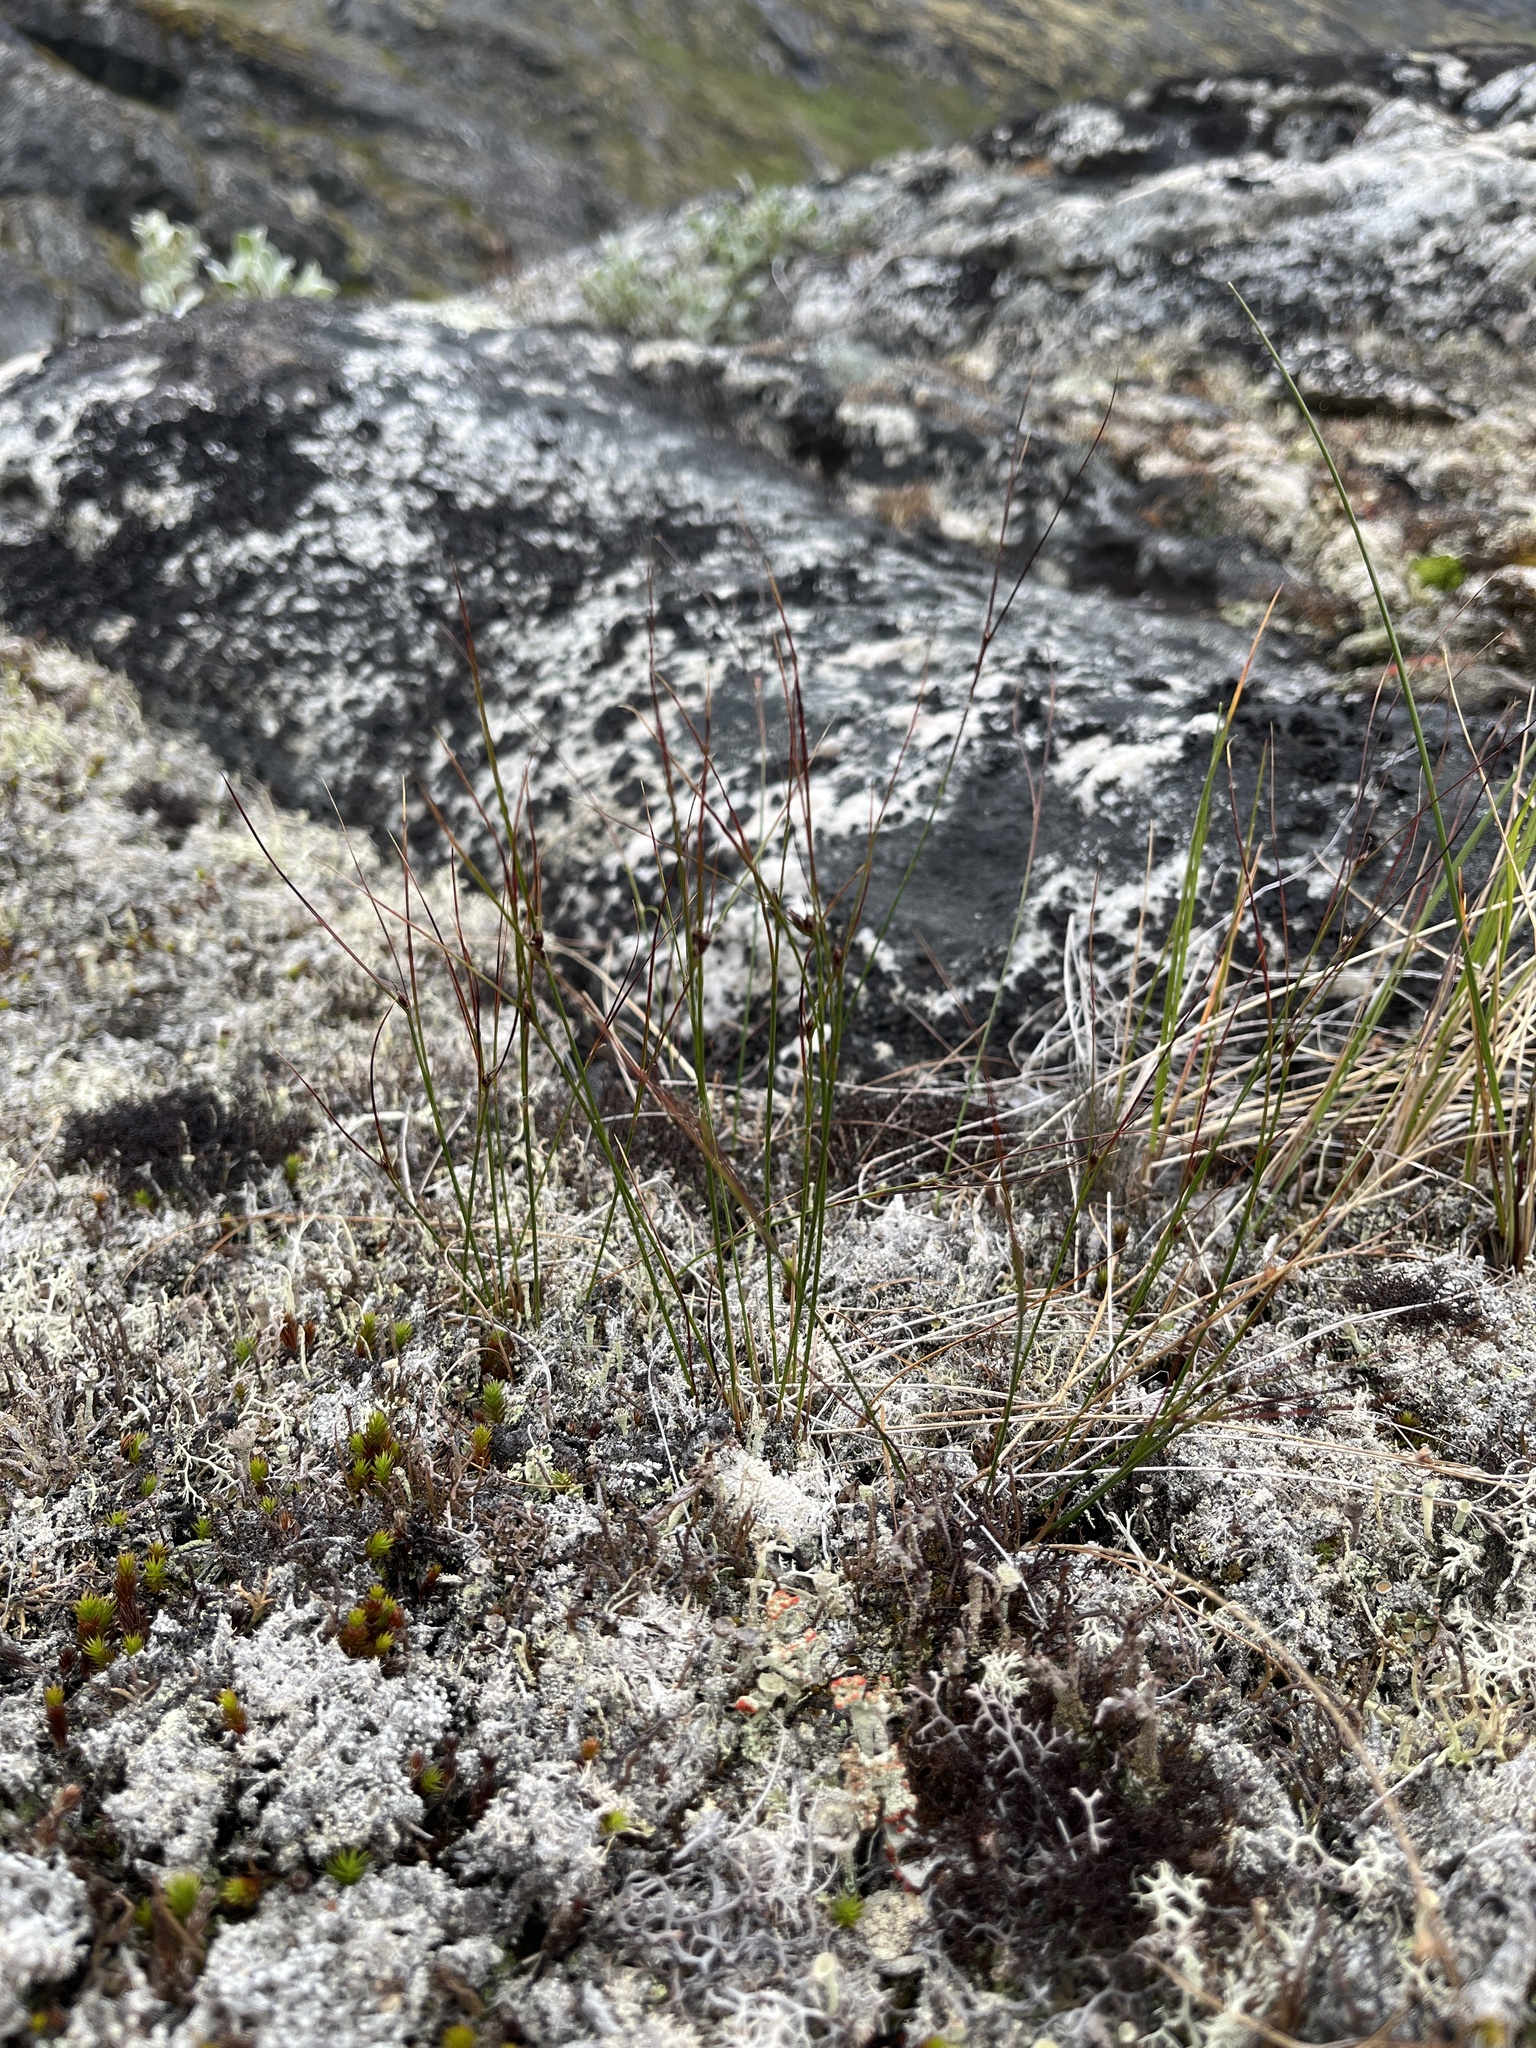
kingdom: Plantae
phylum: Tracheophyta
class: Liliopsida
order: Poales
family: Juncaceae
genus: Oreojuncus
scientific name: Oreojuncus trifidus
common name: Highland rush
